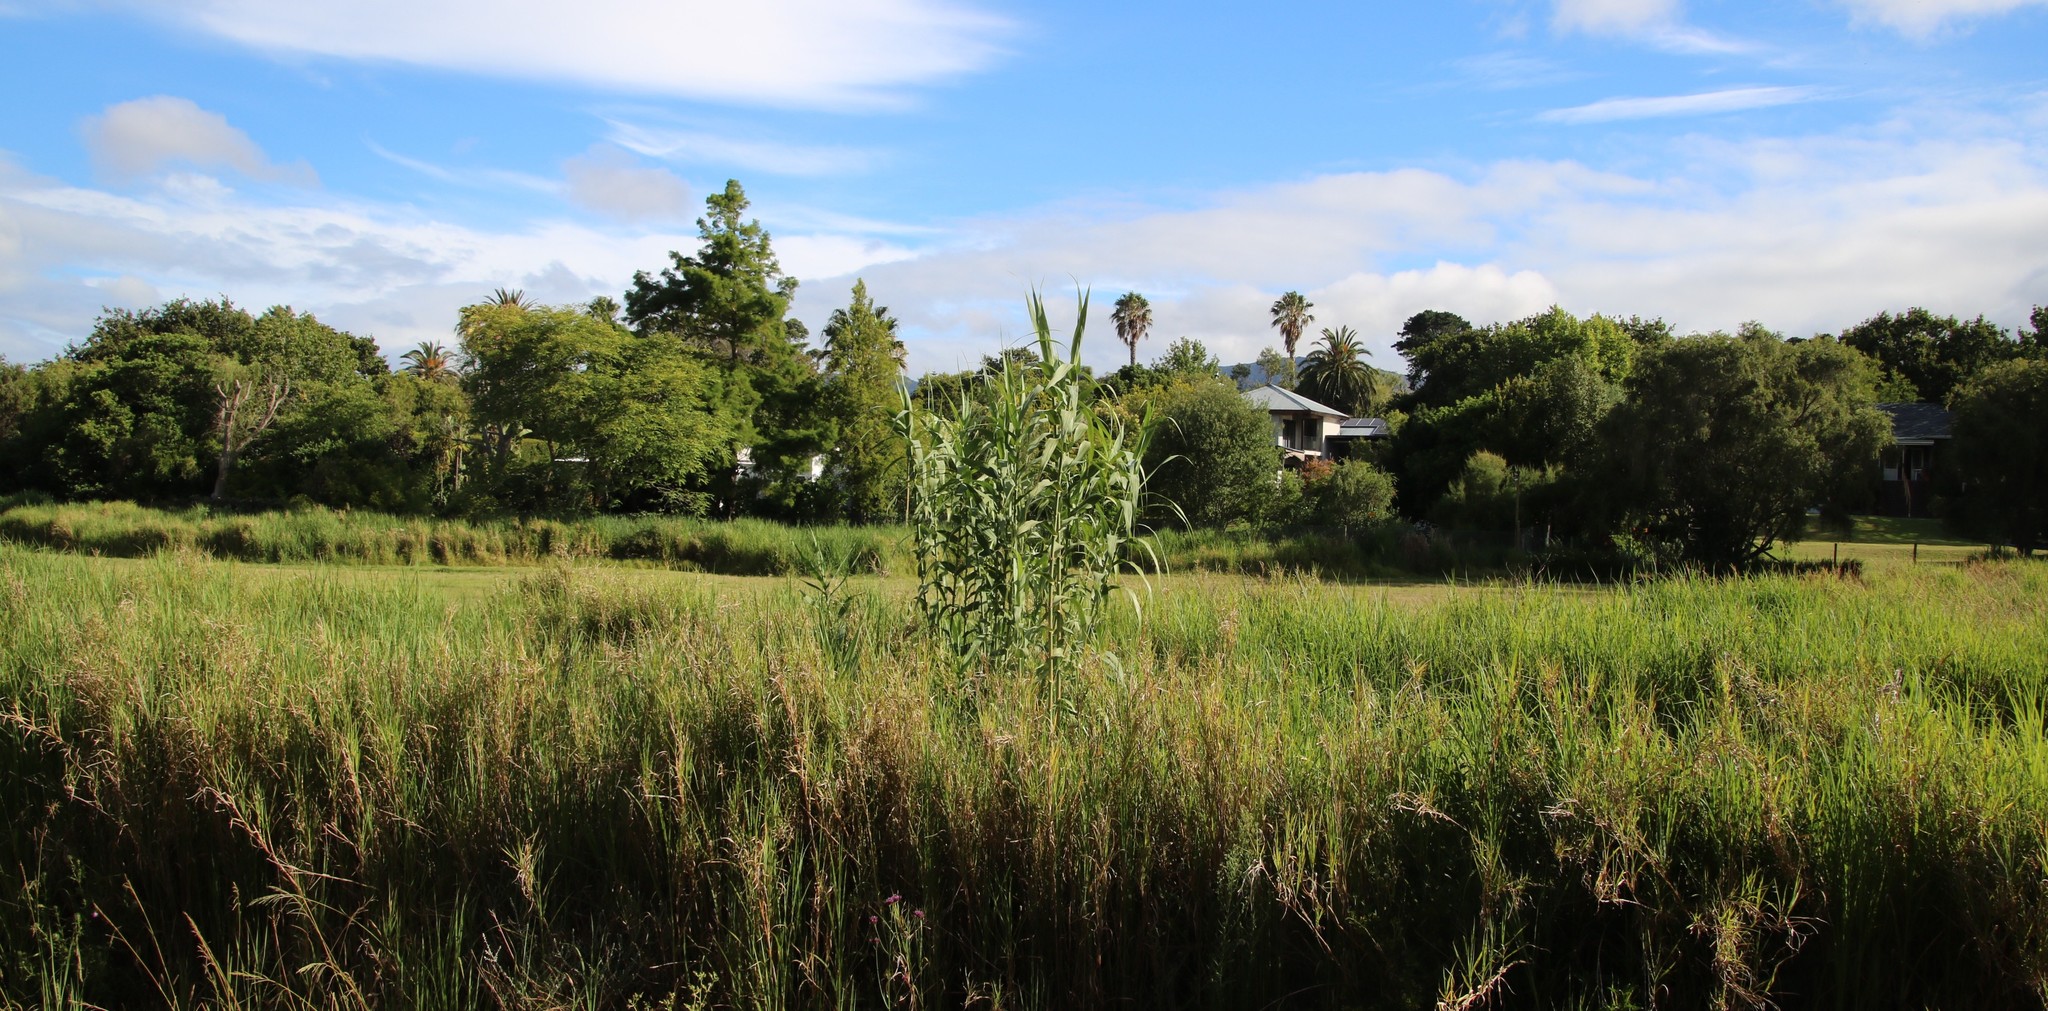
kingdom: Plantae
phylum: Tracheophyta
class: Liliopsida
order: Poales
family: Poaceae
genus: Arundo
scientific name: Arundo donax
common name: Giant reed
